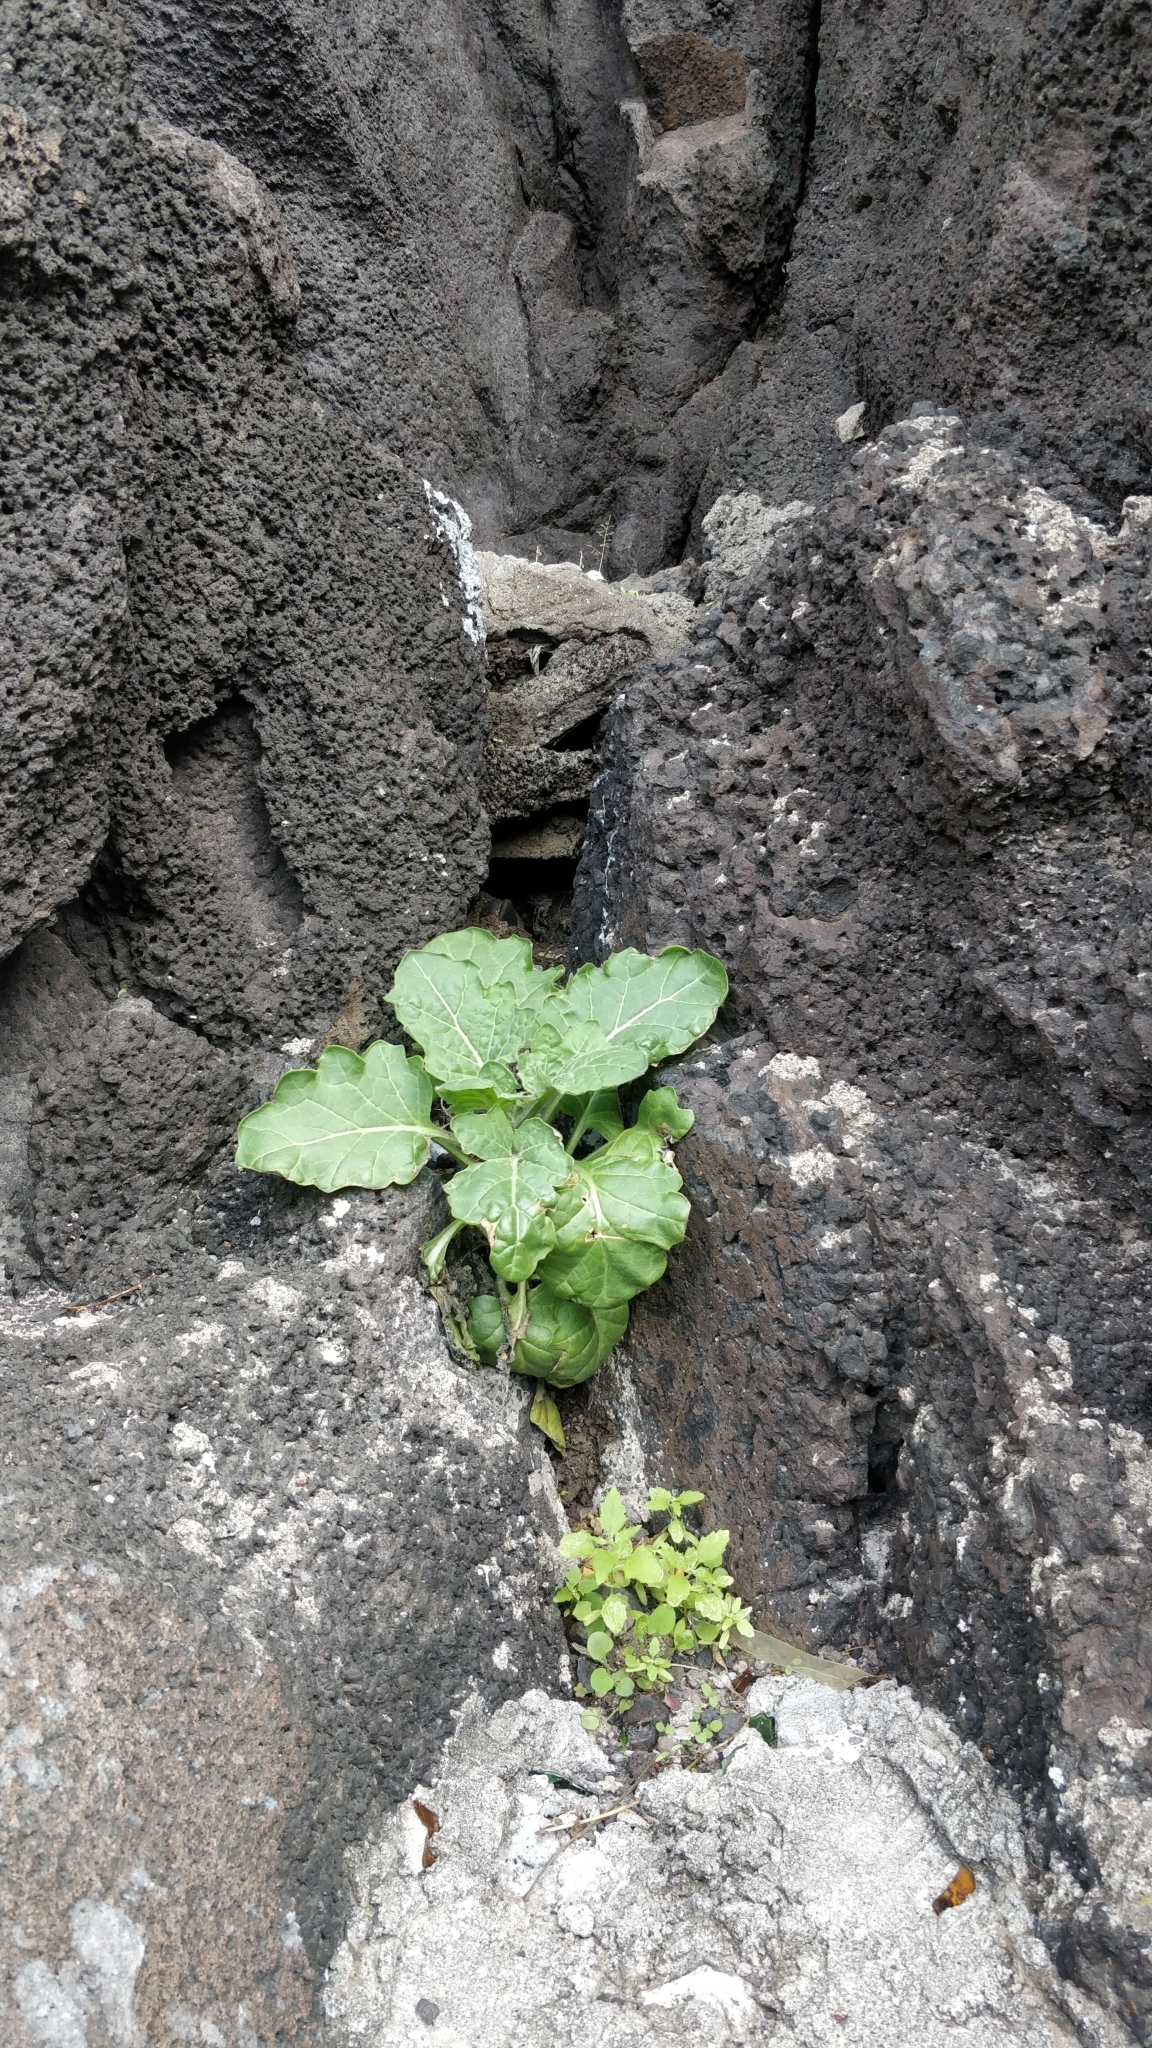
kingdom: Plantae
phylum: Tracheophyta
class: Magnoliopsida
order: Solanales
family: Solanaceae
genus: Hyoscyamus
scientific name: Hyoscyamus albus
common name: White henbane
